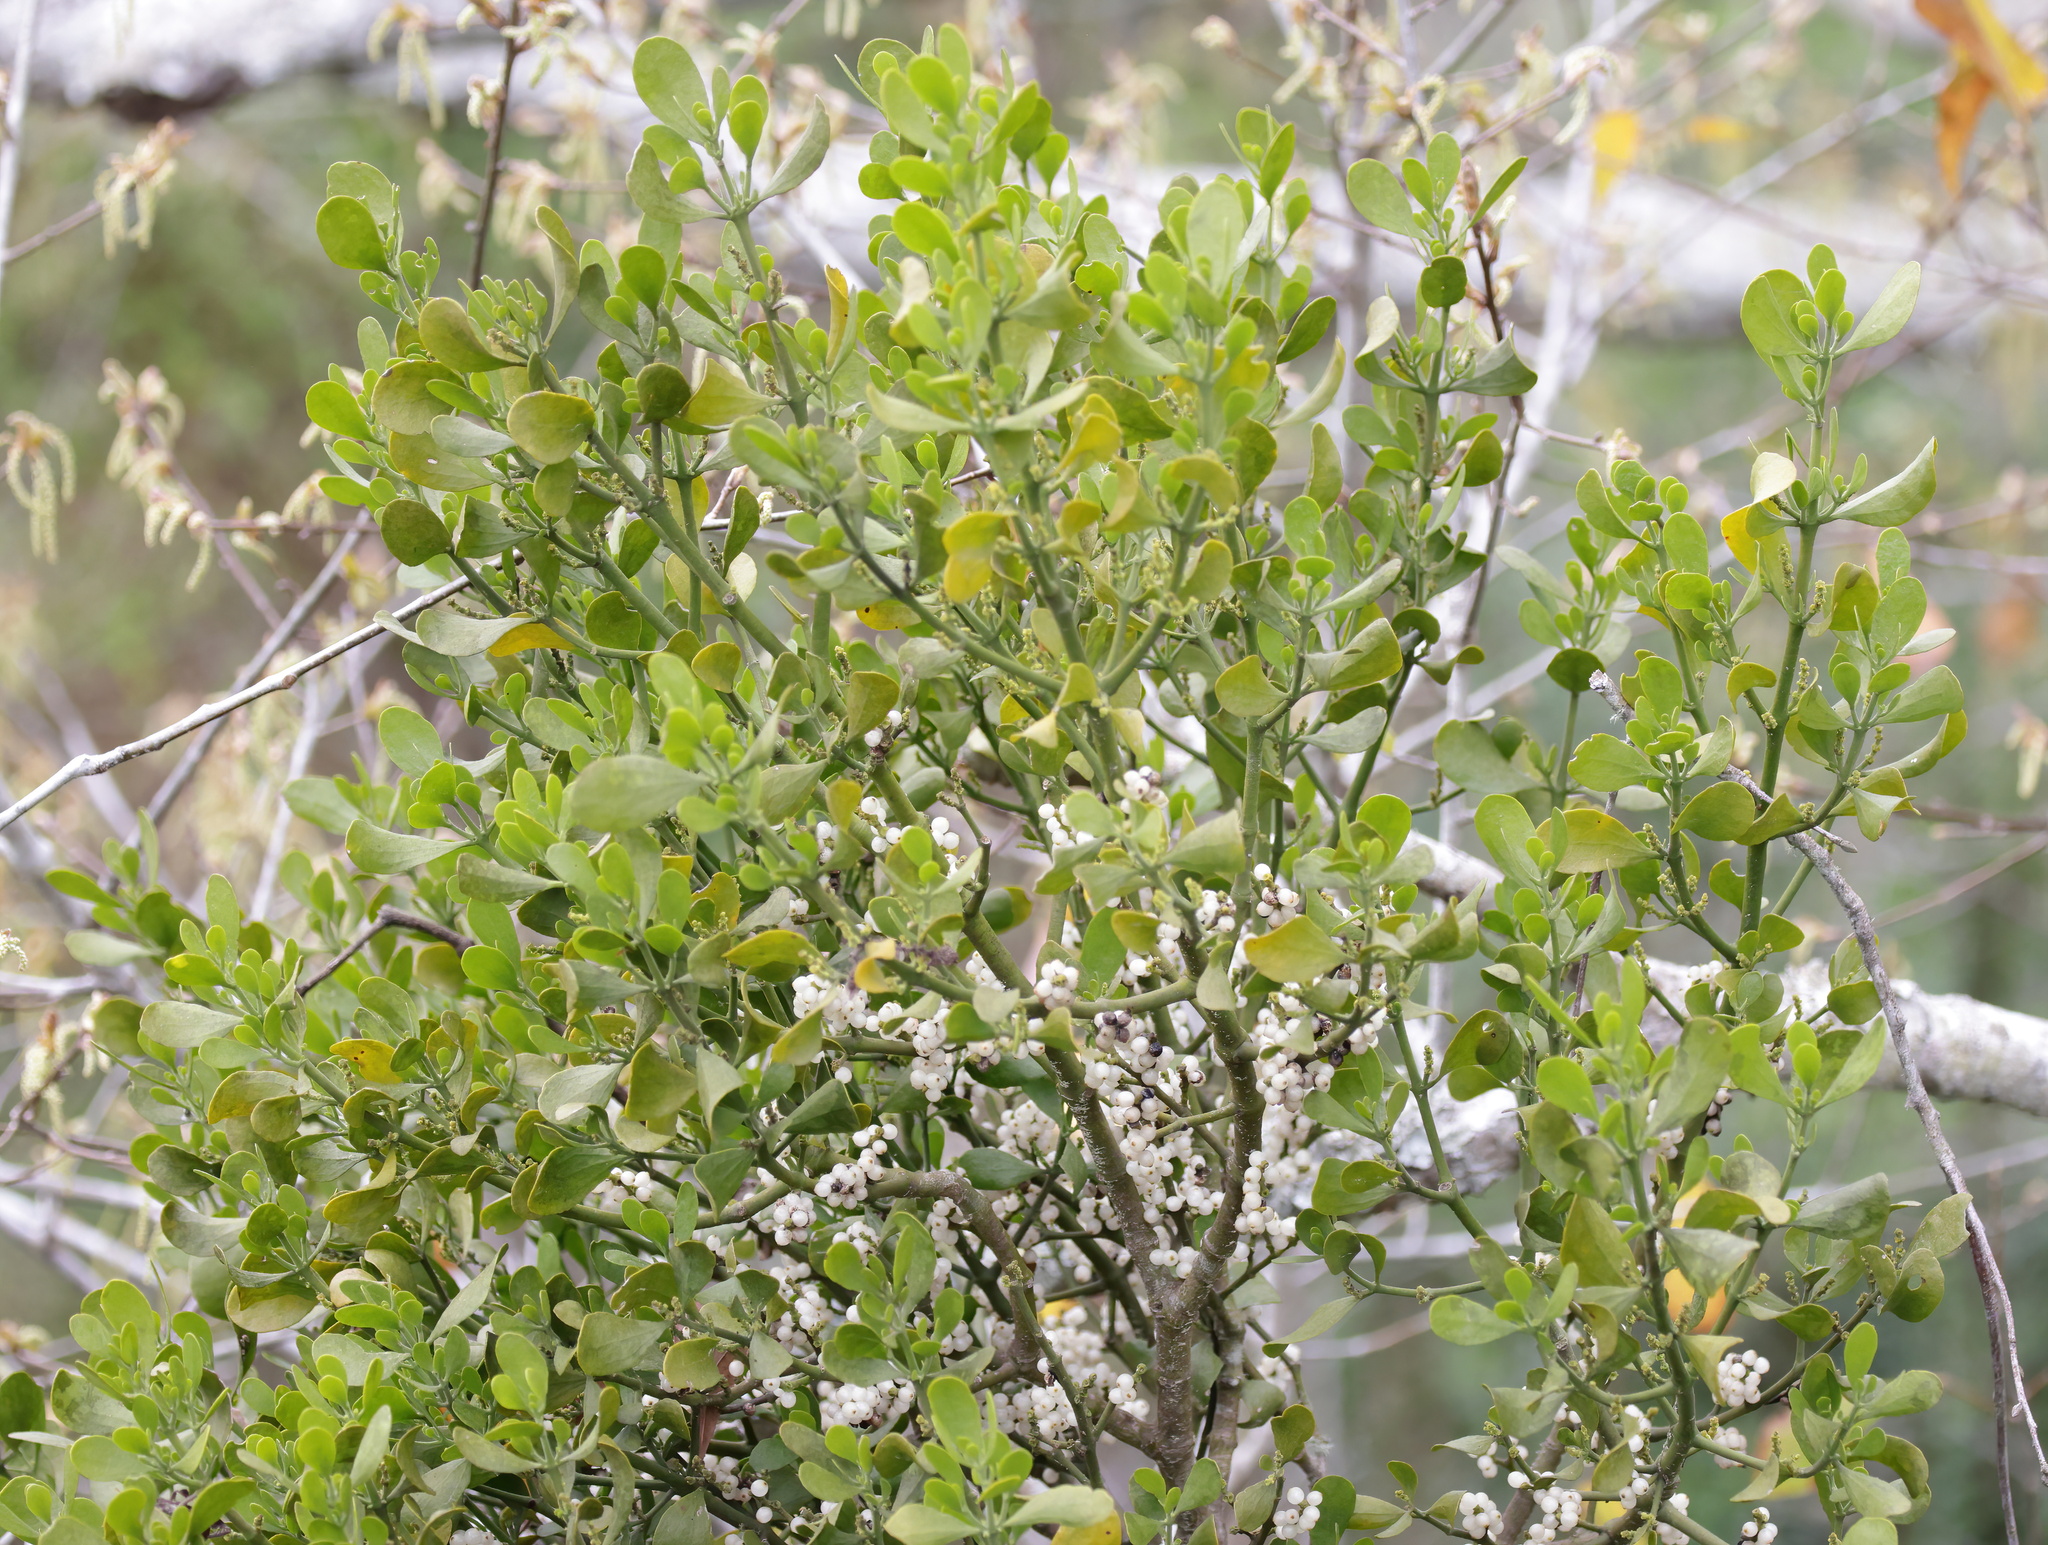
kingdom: Plantae
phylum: Tracheophyta
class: Magnoliopsida
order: Santalales
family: Viscaceae
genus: Phoradendron
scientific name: Phoradendron leucarpum
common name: Pacific mistletoe
